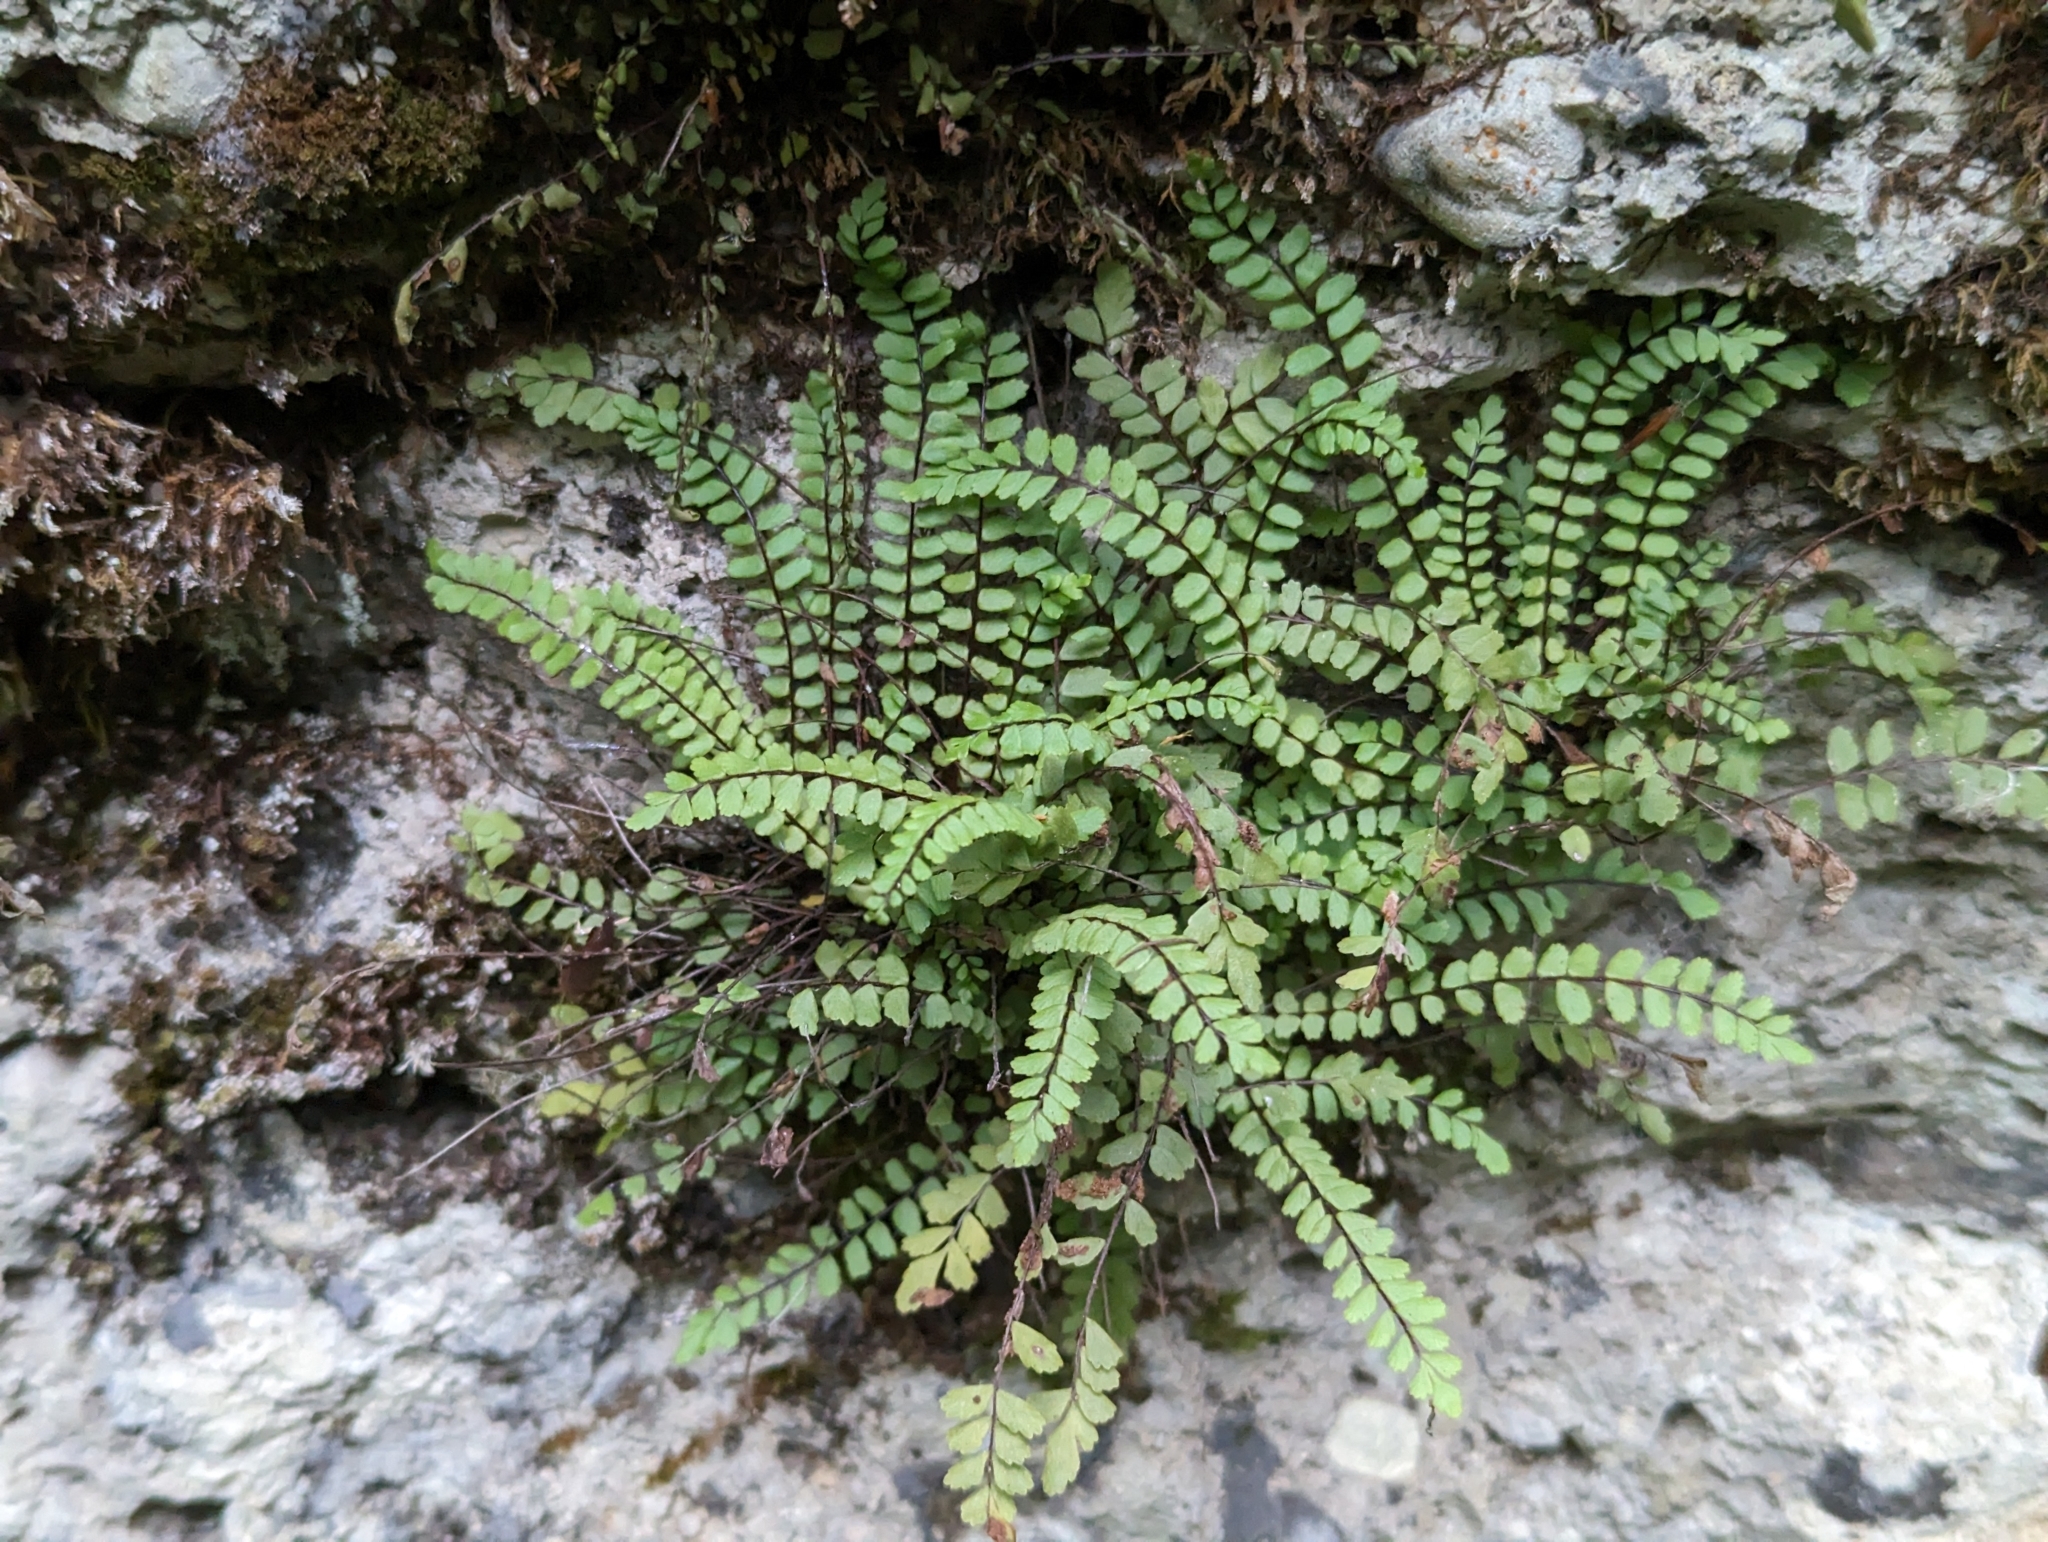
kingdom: Plantae
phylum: Tracheophyta
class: Polypodiopsida
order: Polypodiales
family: Aspleniaceae
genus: Asplenium
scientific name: Asplenium trichomanes
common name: Maidenhair spleenwort
